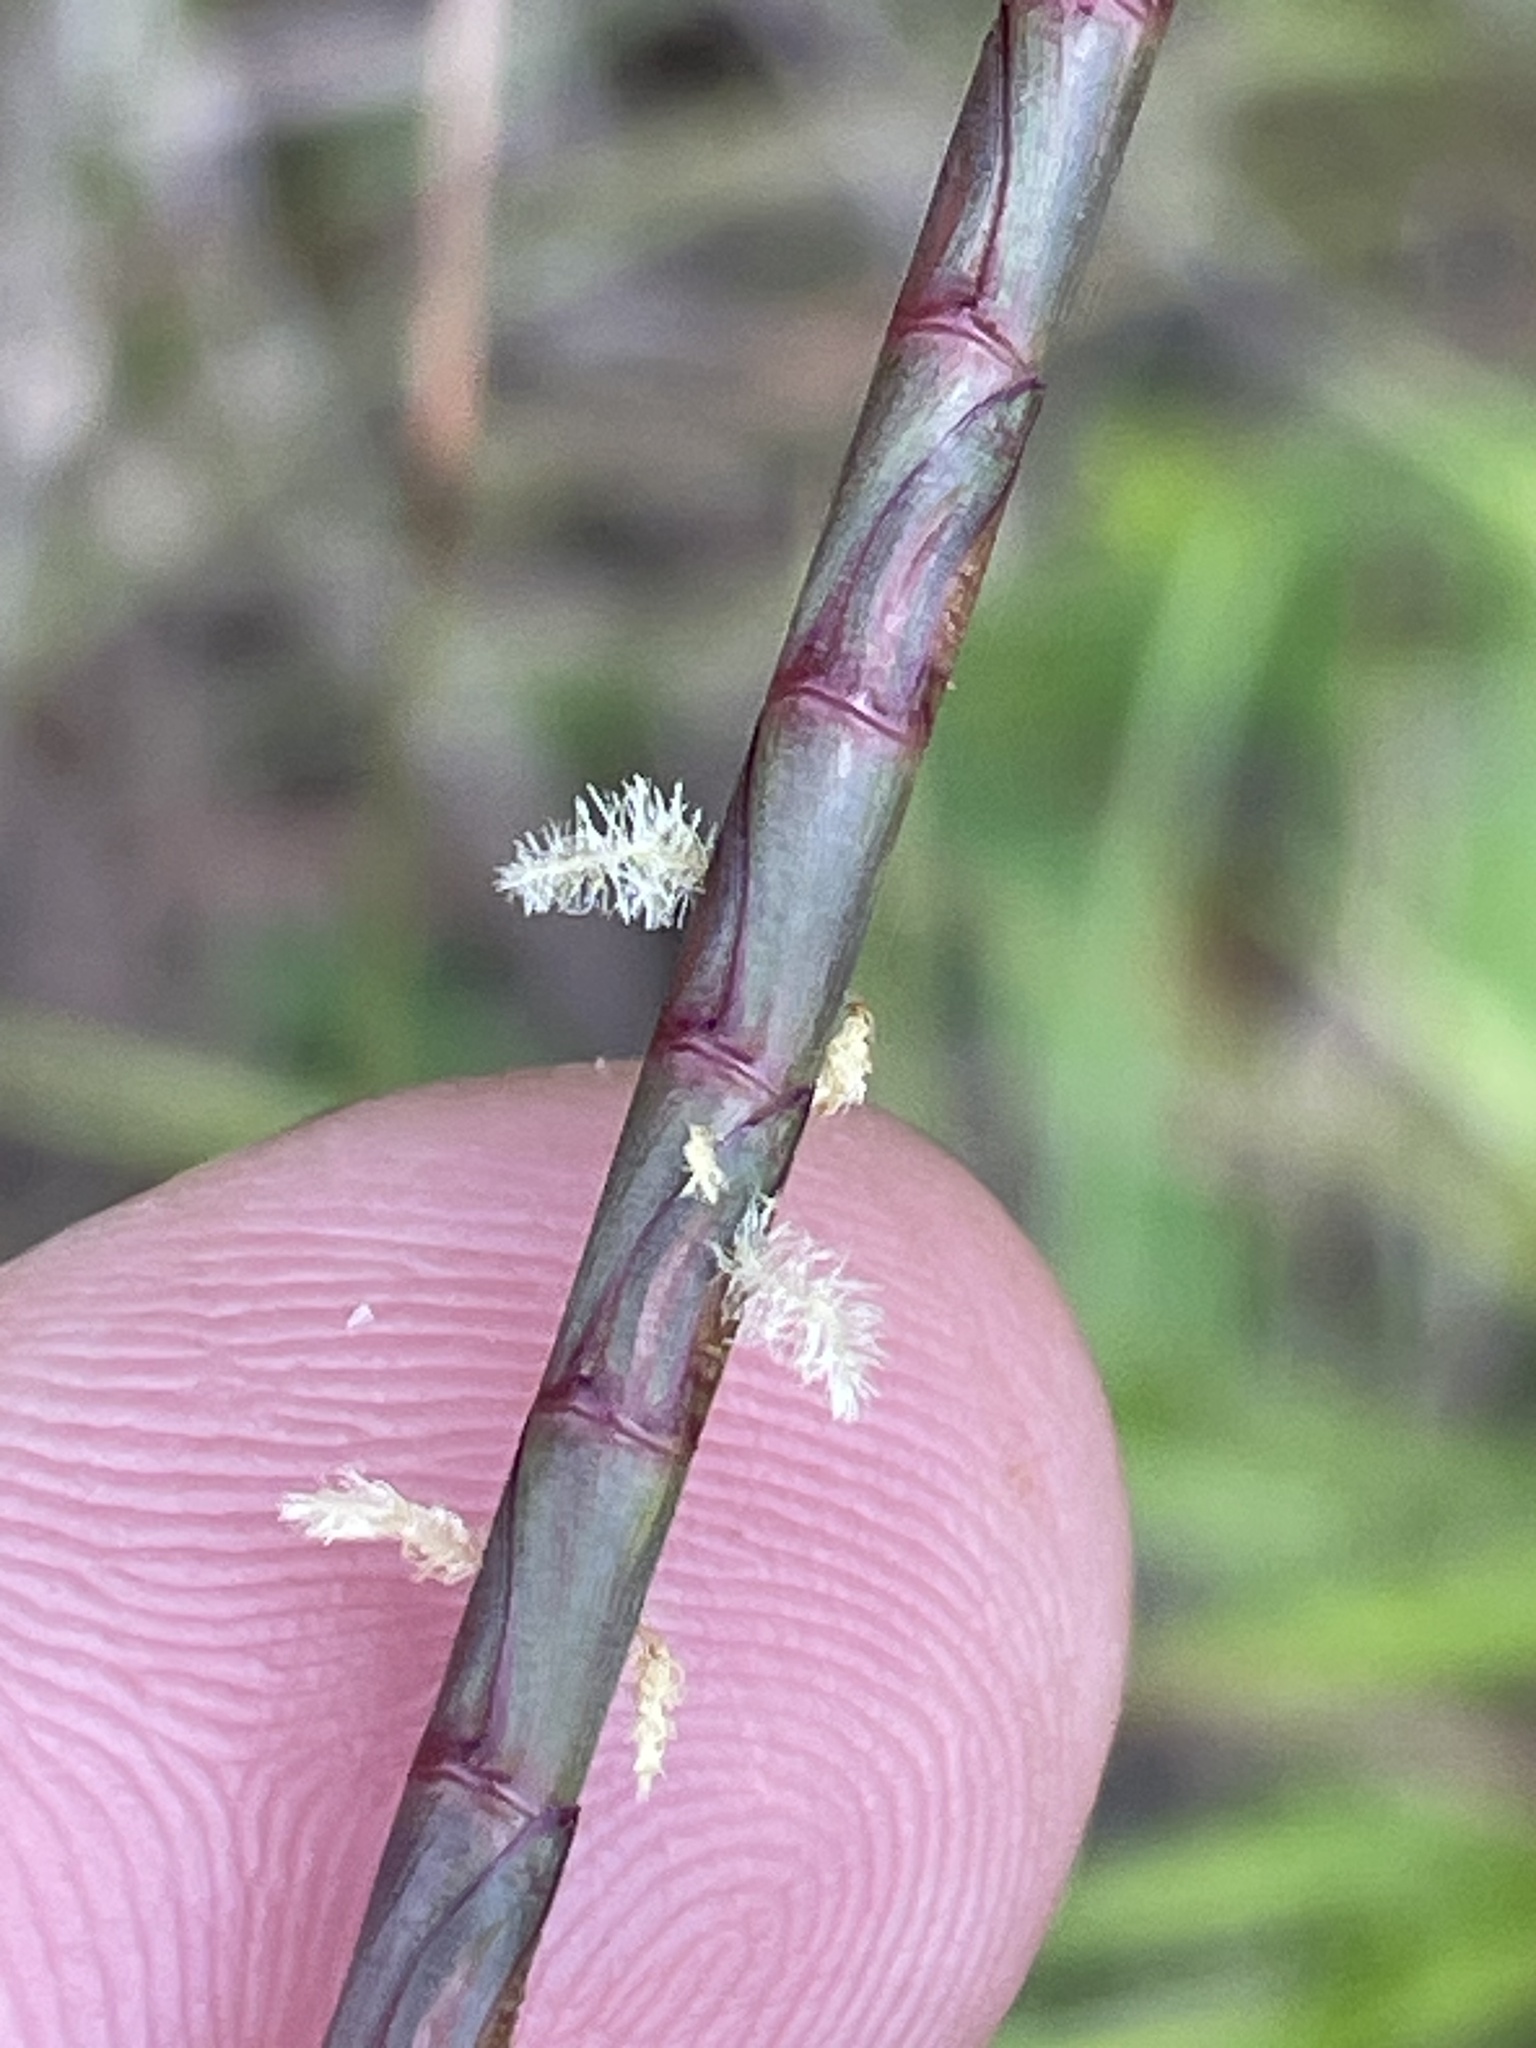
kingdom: Plantae
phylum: Tracheophyta
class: Liliopsida
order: Poales
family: Poaceae
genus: Rottboellia
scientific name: Rottboellia campestris
